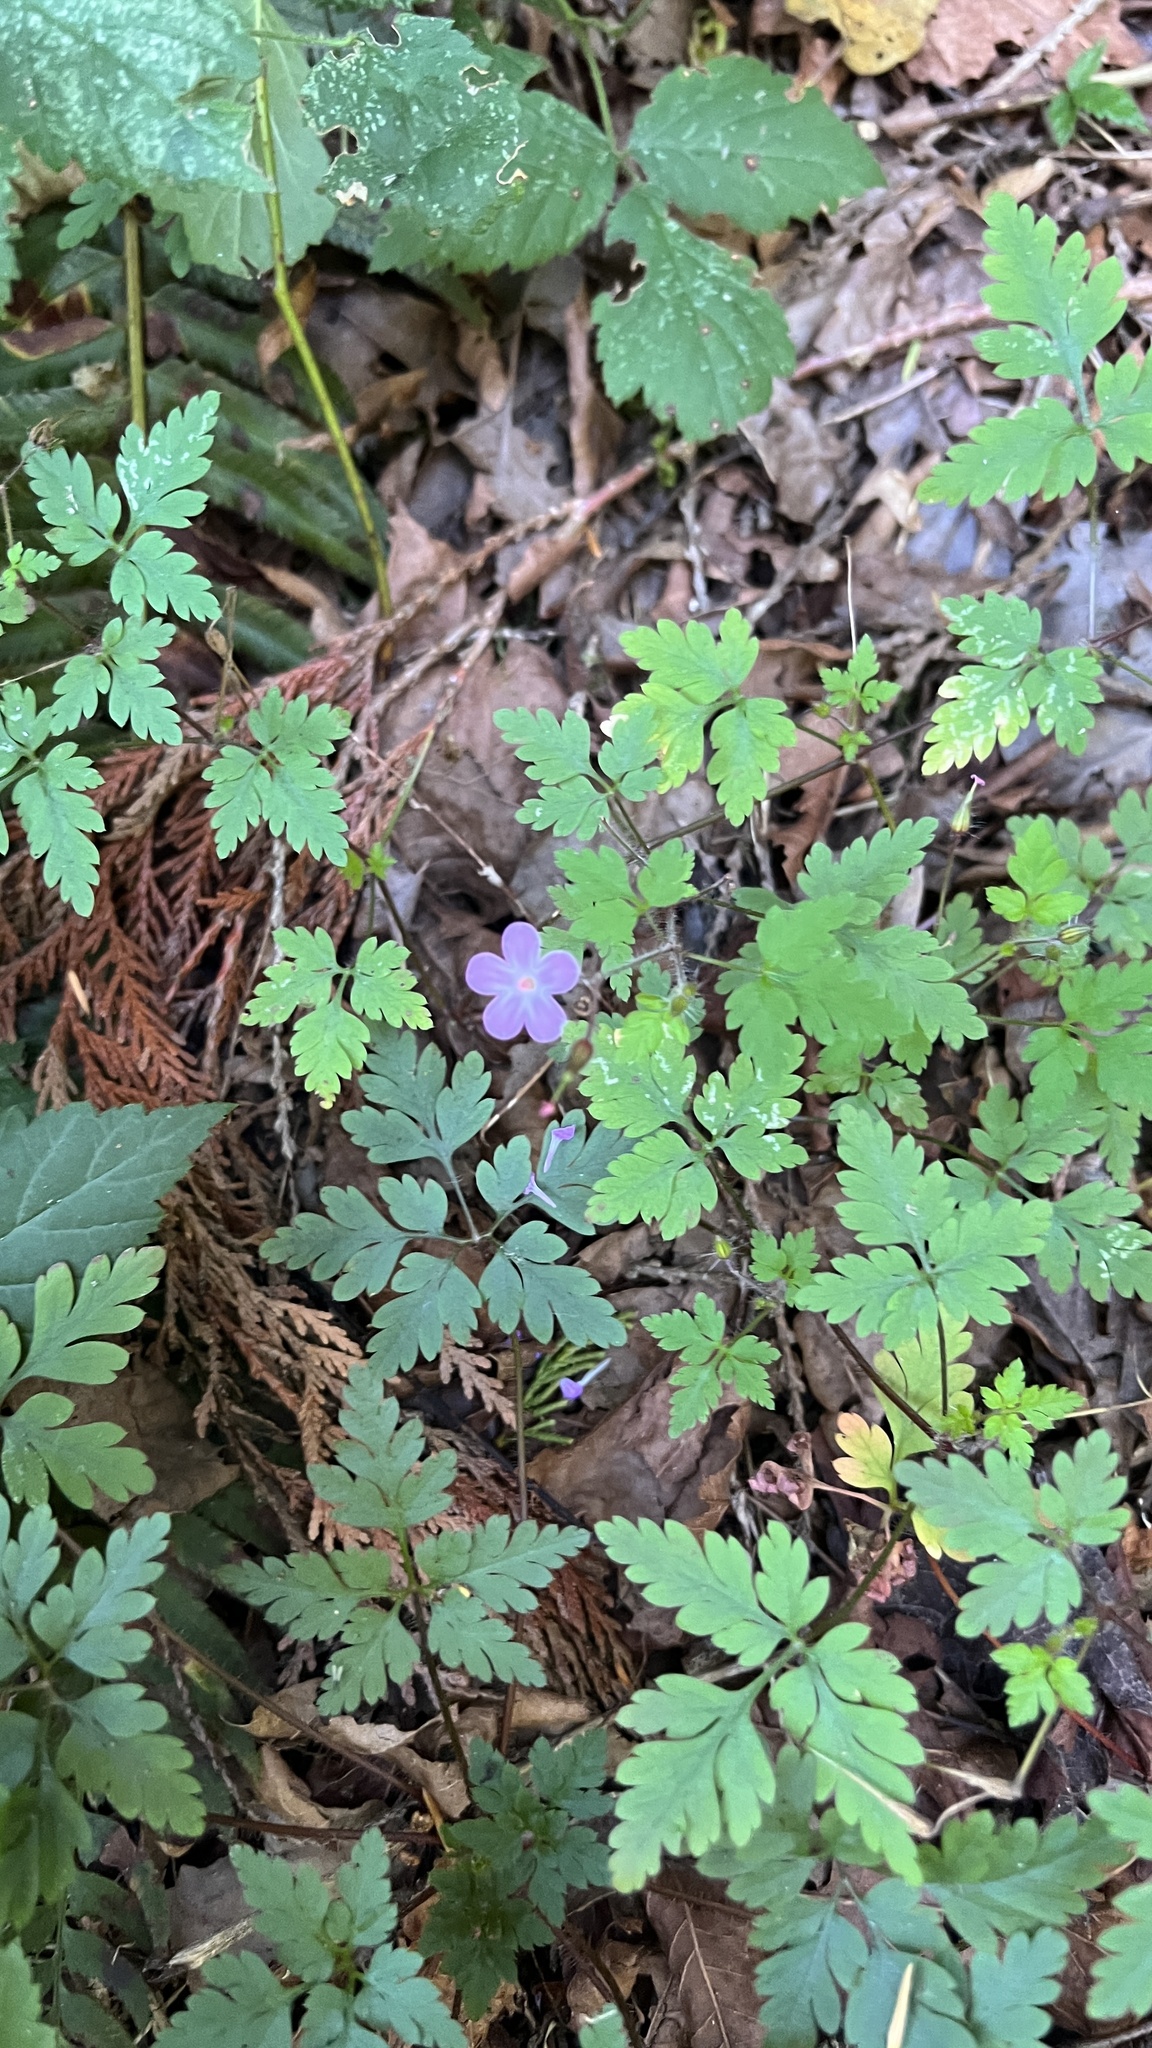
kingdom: Plantae
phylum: Tracheophyta
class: Magnoliopsida
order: Geraniales
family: Geraniaceae
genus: Geranium
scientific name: Geranium robertianum
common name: Herb-robert
